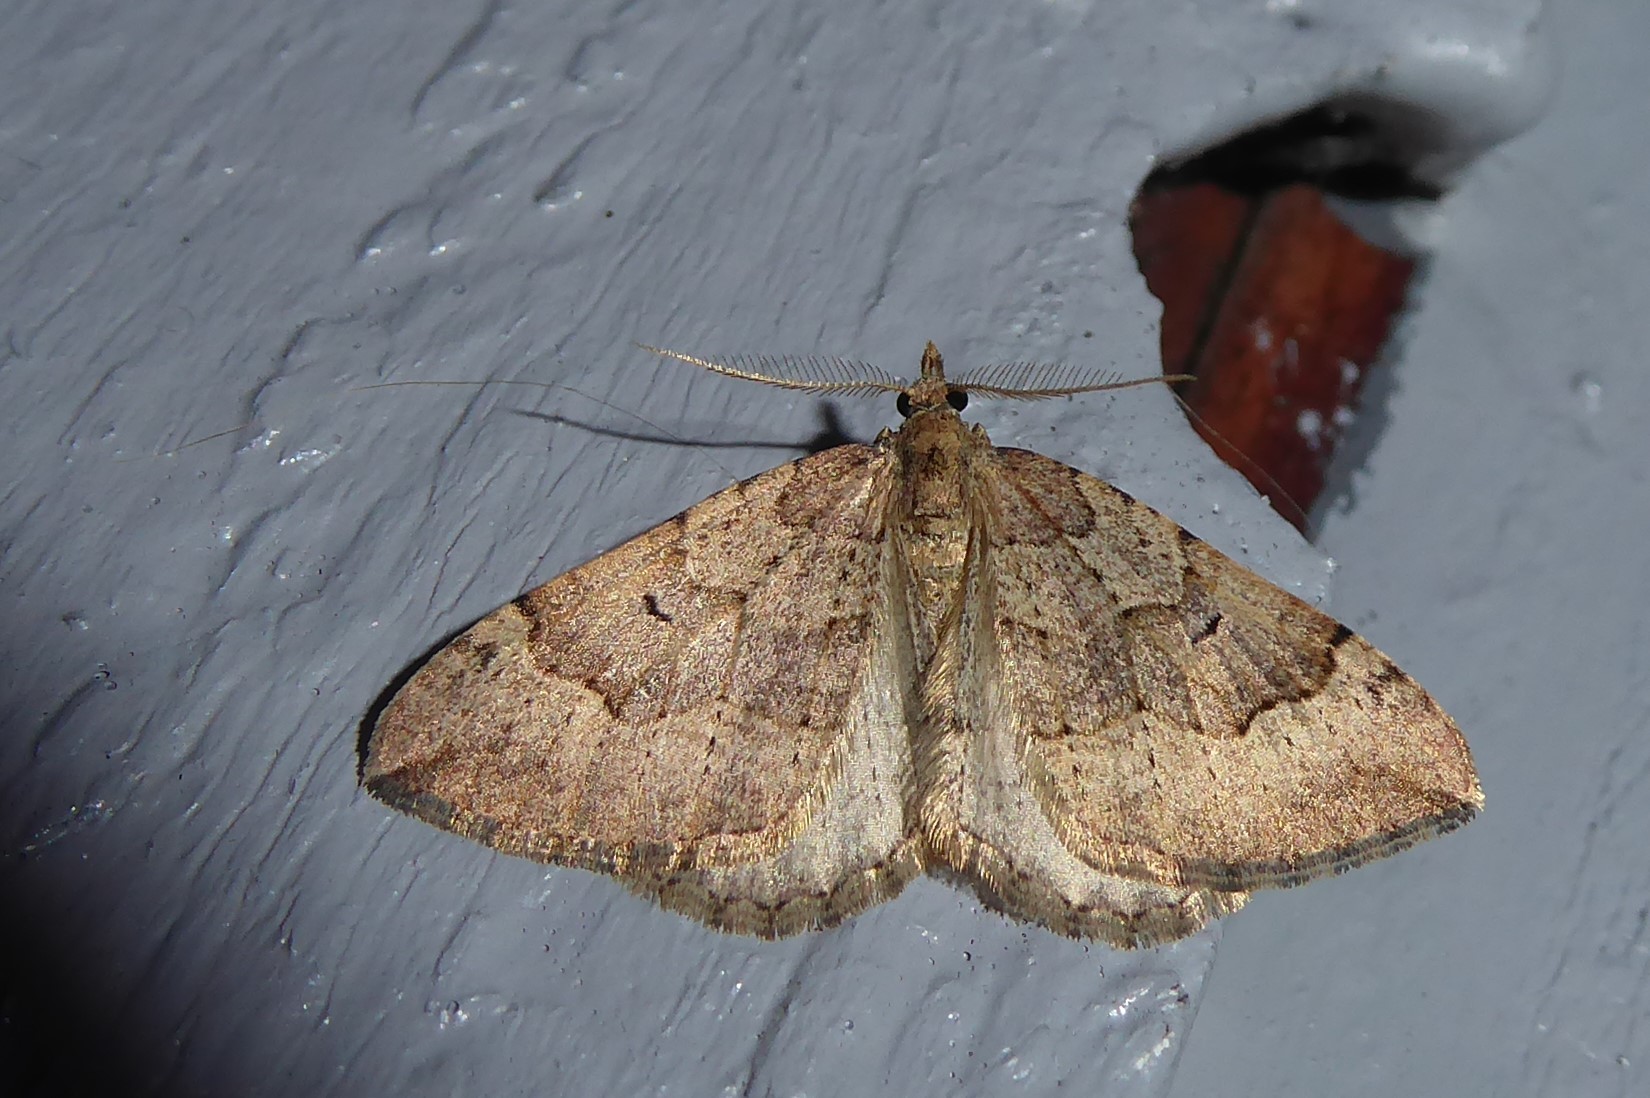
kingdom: Animalia
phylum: Arthropoda
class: Insecta
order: Lepidoptera
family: Geometridae
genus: Epyaxa
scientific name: Epyaxa rosearia
